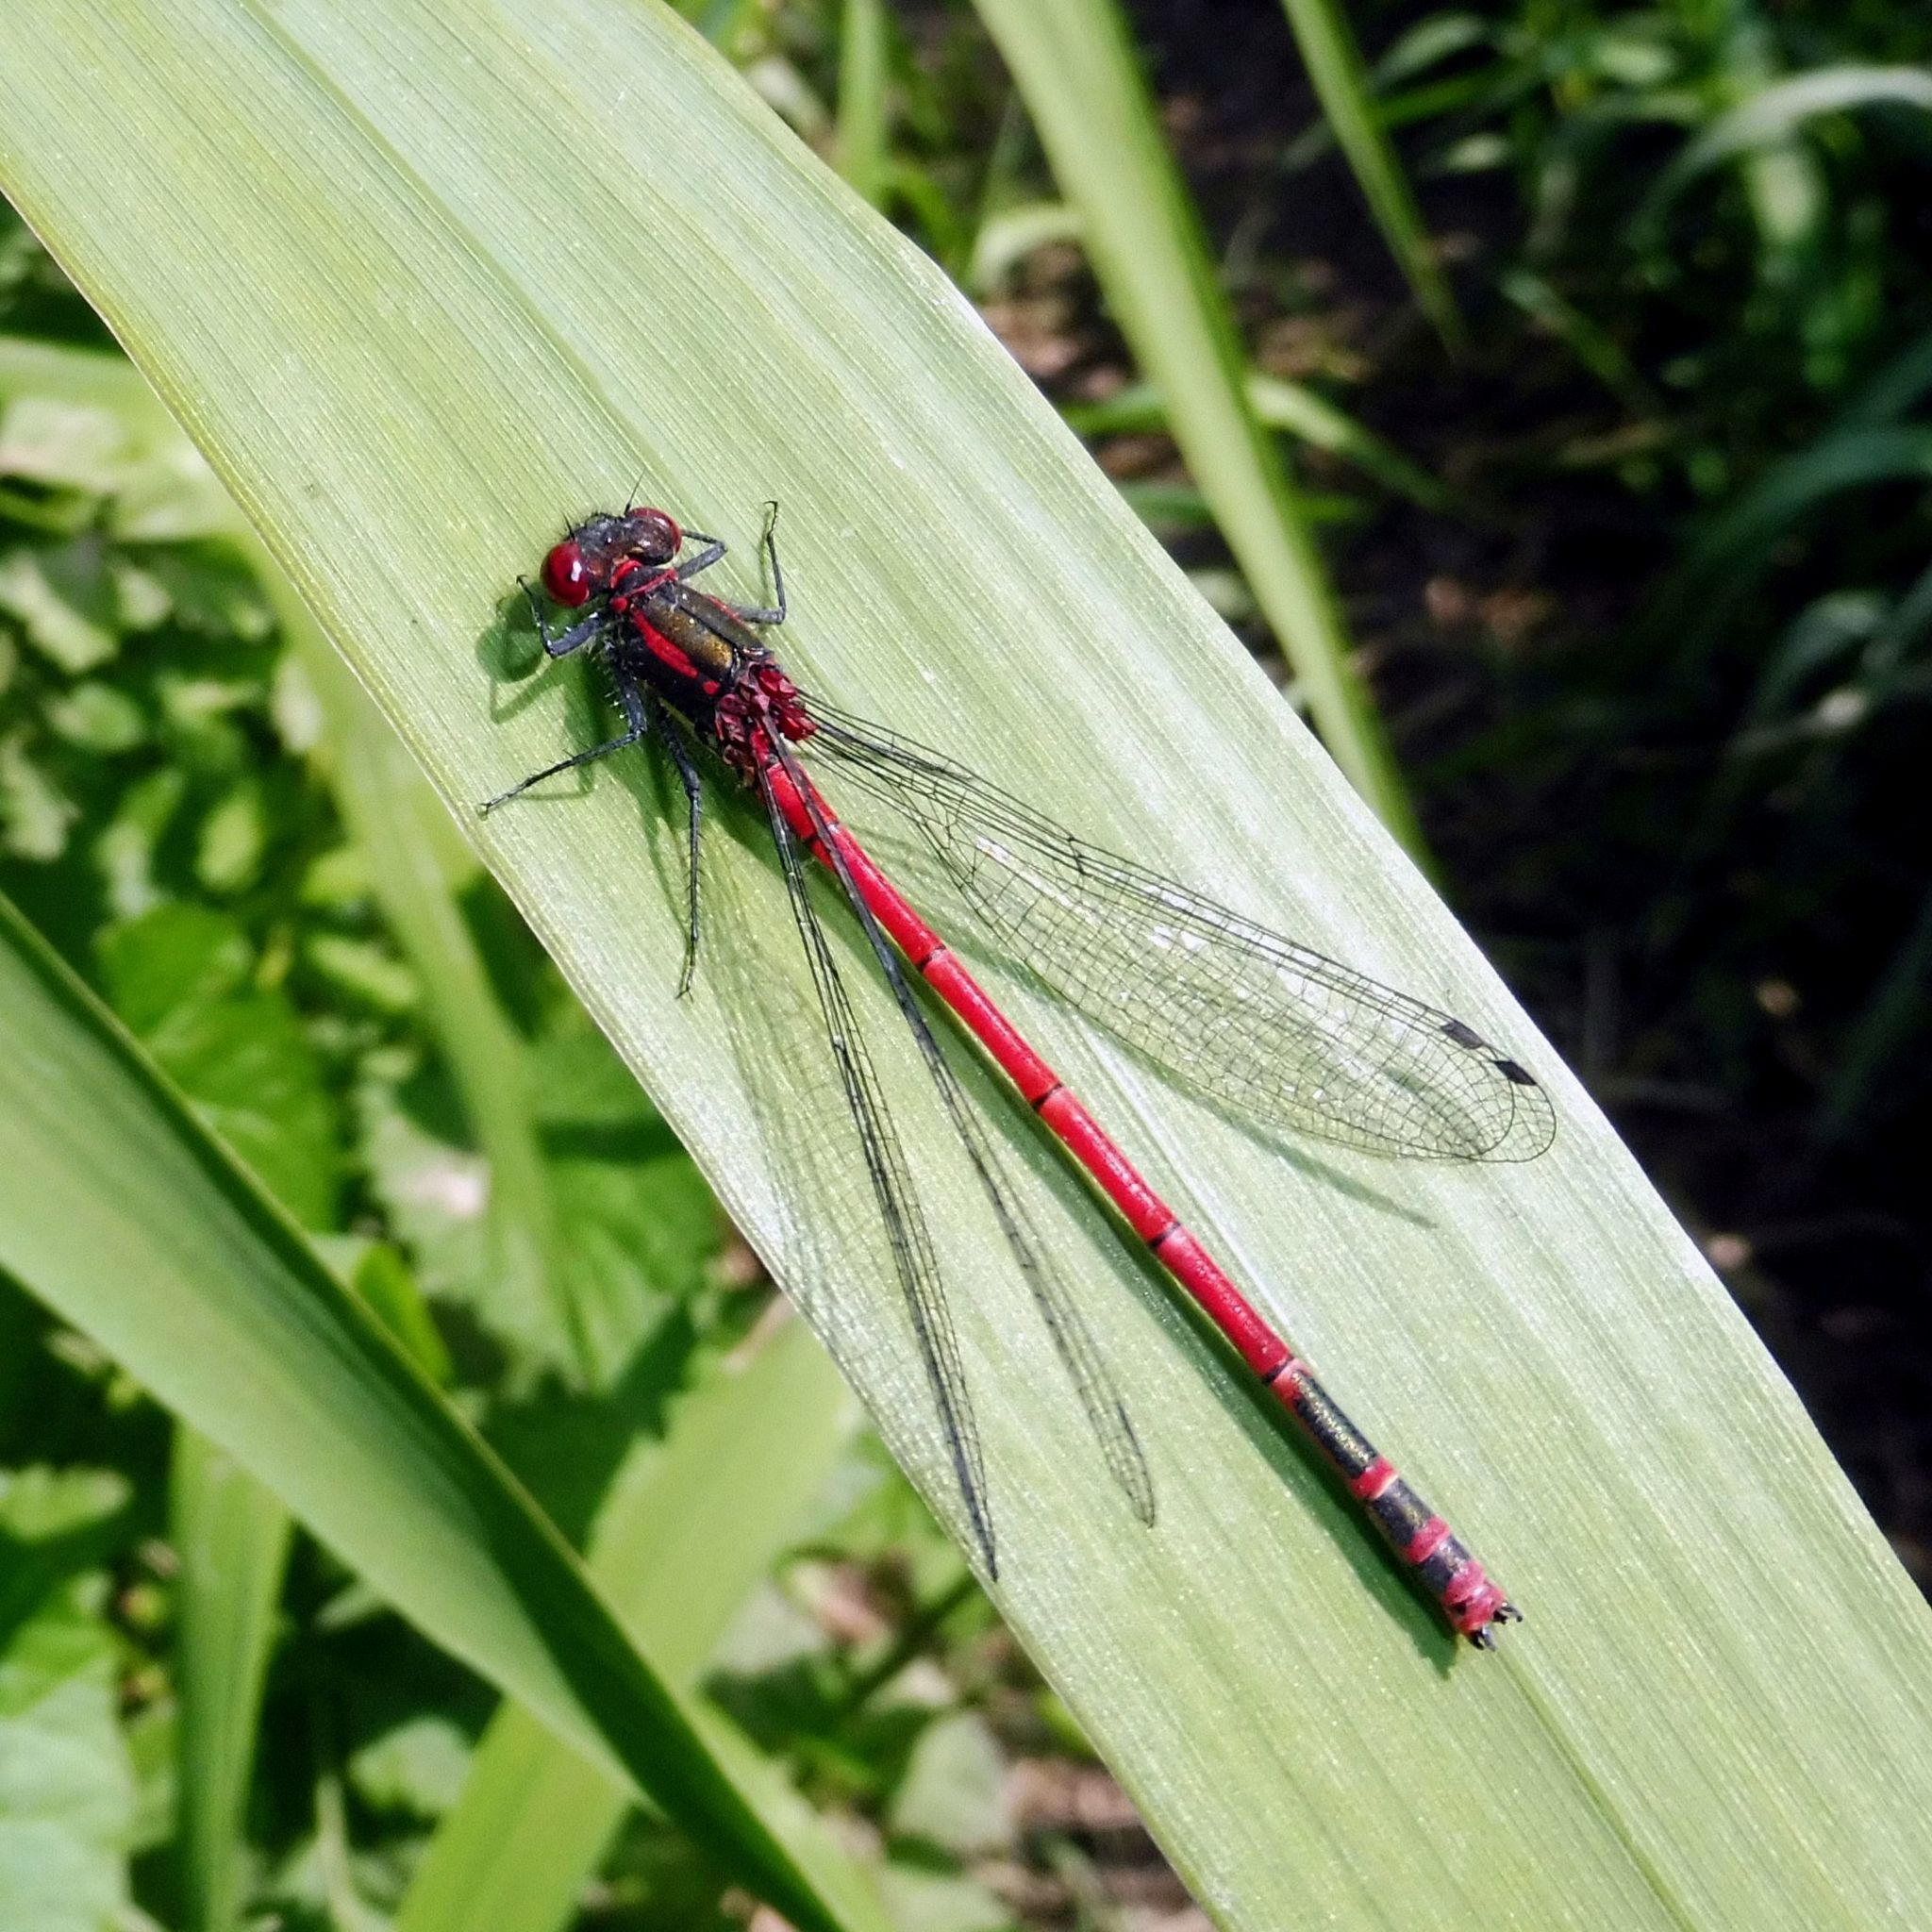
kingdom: Animalia
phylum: Arthropoda
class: Insecta
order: Odonata
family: Coenagrionidae
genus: Pyrrhosoma
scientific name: Pyrrhosoma nymphula
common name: Large red damsel
